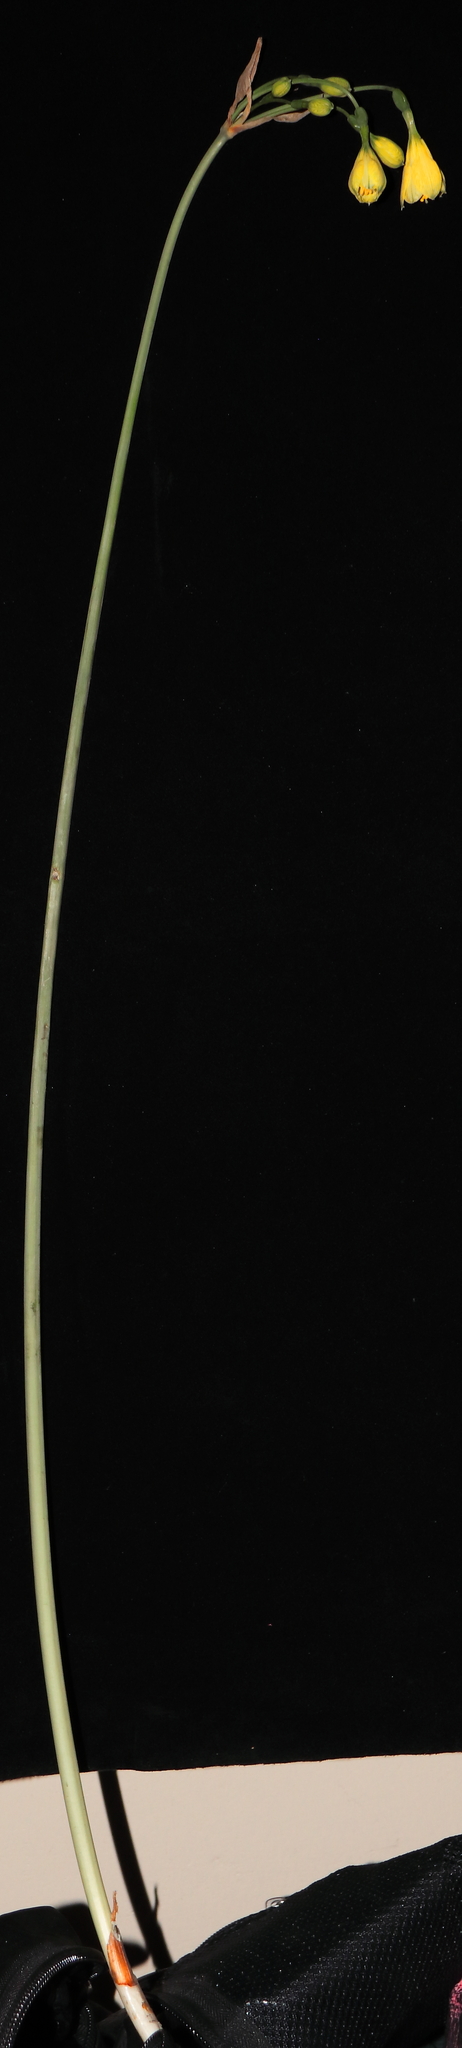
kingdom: Plantae
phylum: Tracheophyta
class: Liliopsida
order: Asparagales
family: Amaryllidaceae
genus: Stenomesson
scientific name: Stenomesson pearcei
